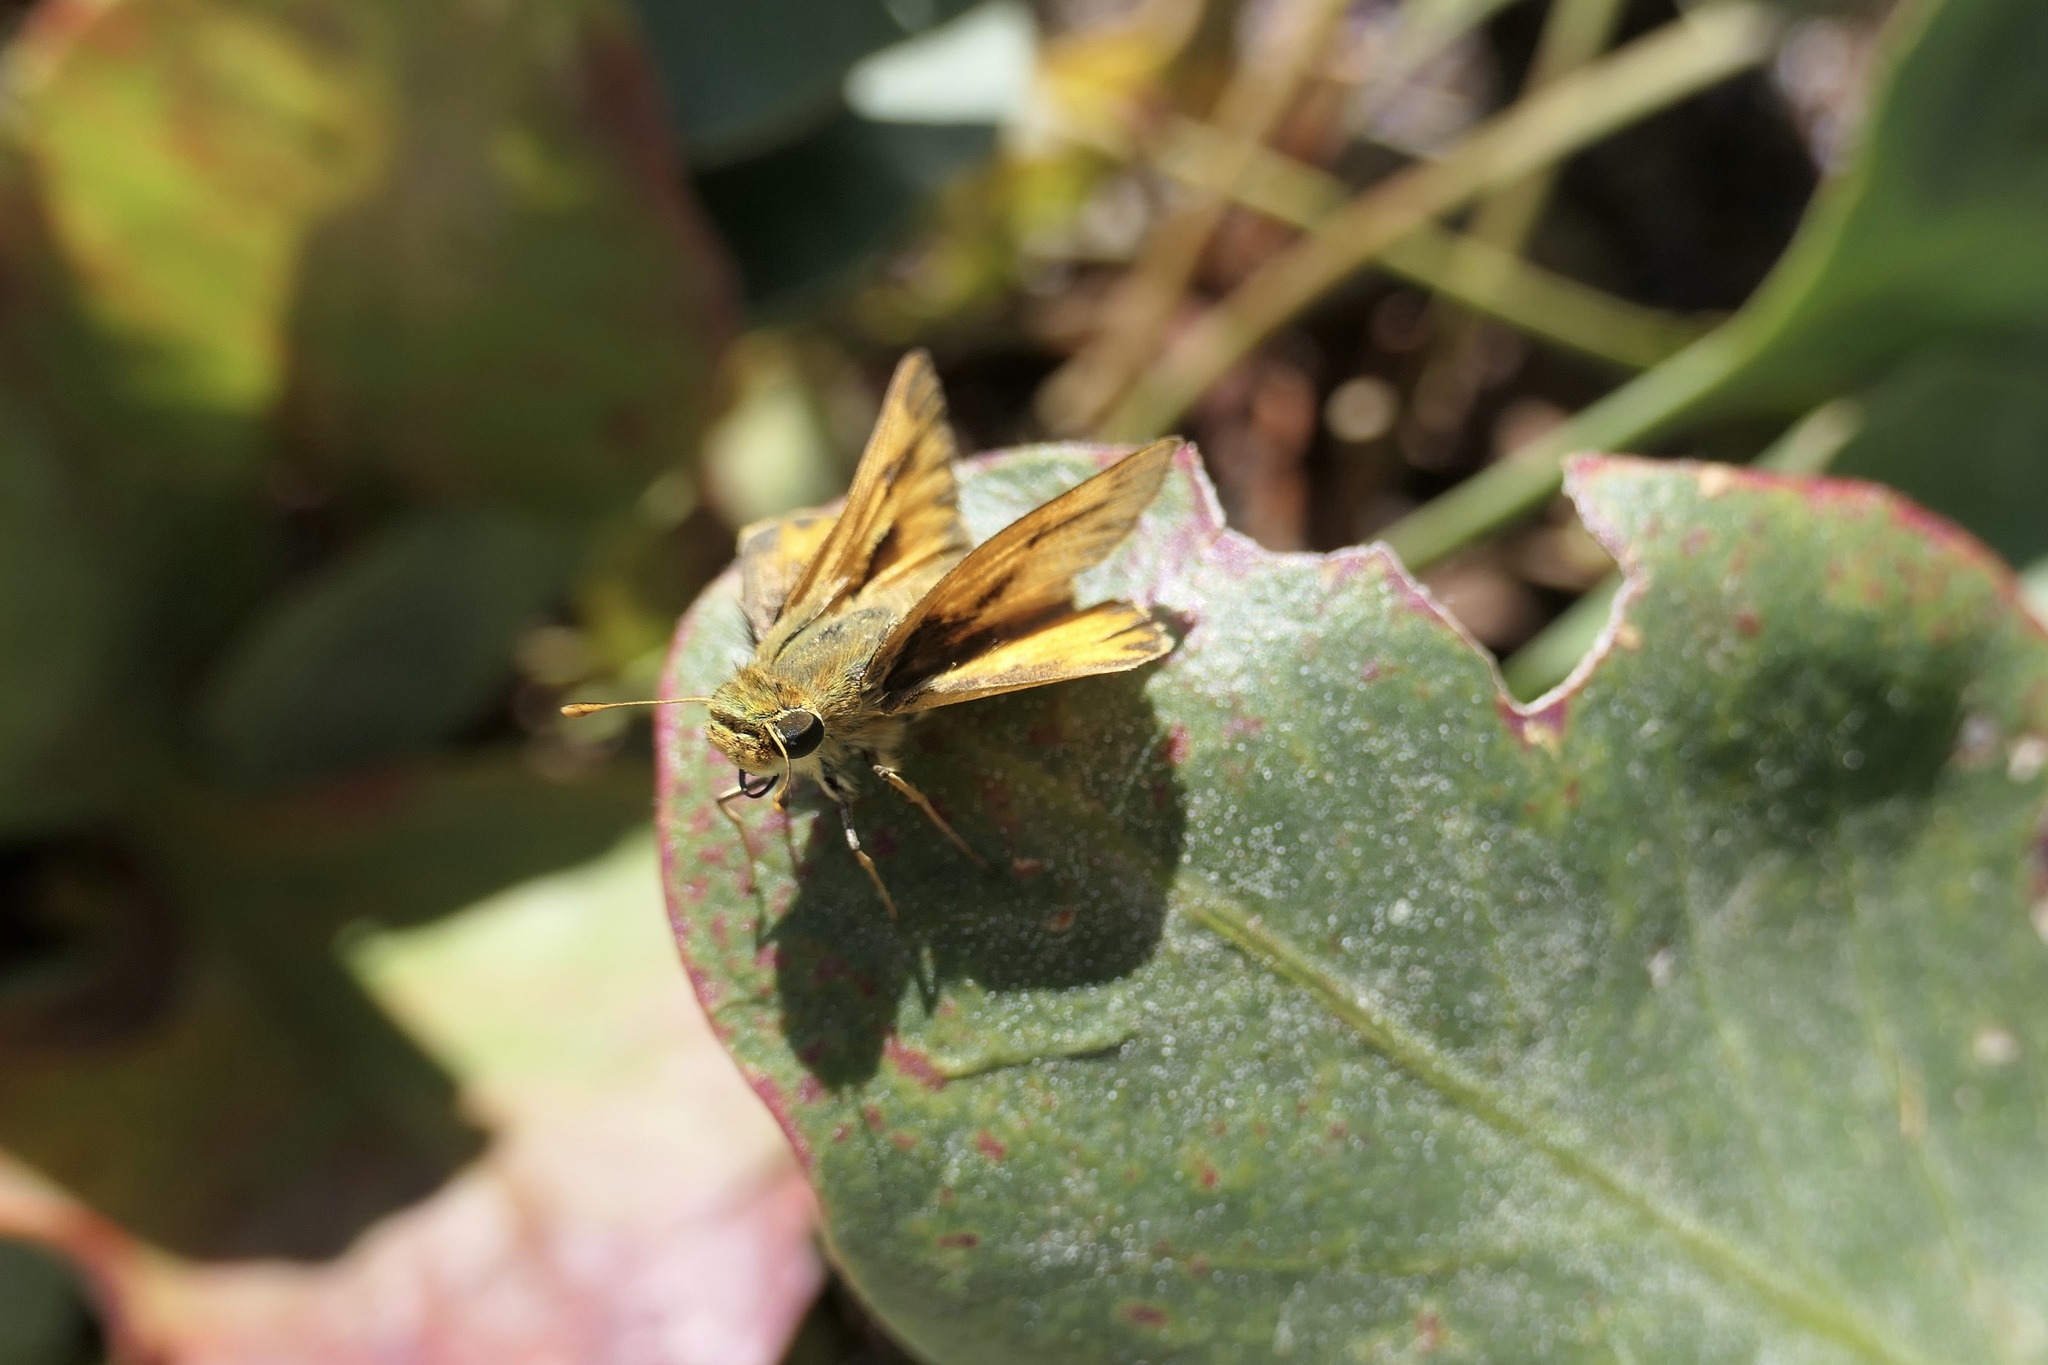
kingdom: Animalia
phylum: Arthropoda
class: Insecta
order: Lepidoptera
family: Hesperiidae
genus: Hylephila
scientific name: Hylephila phyleus
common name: Fiery skipper
